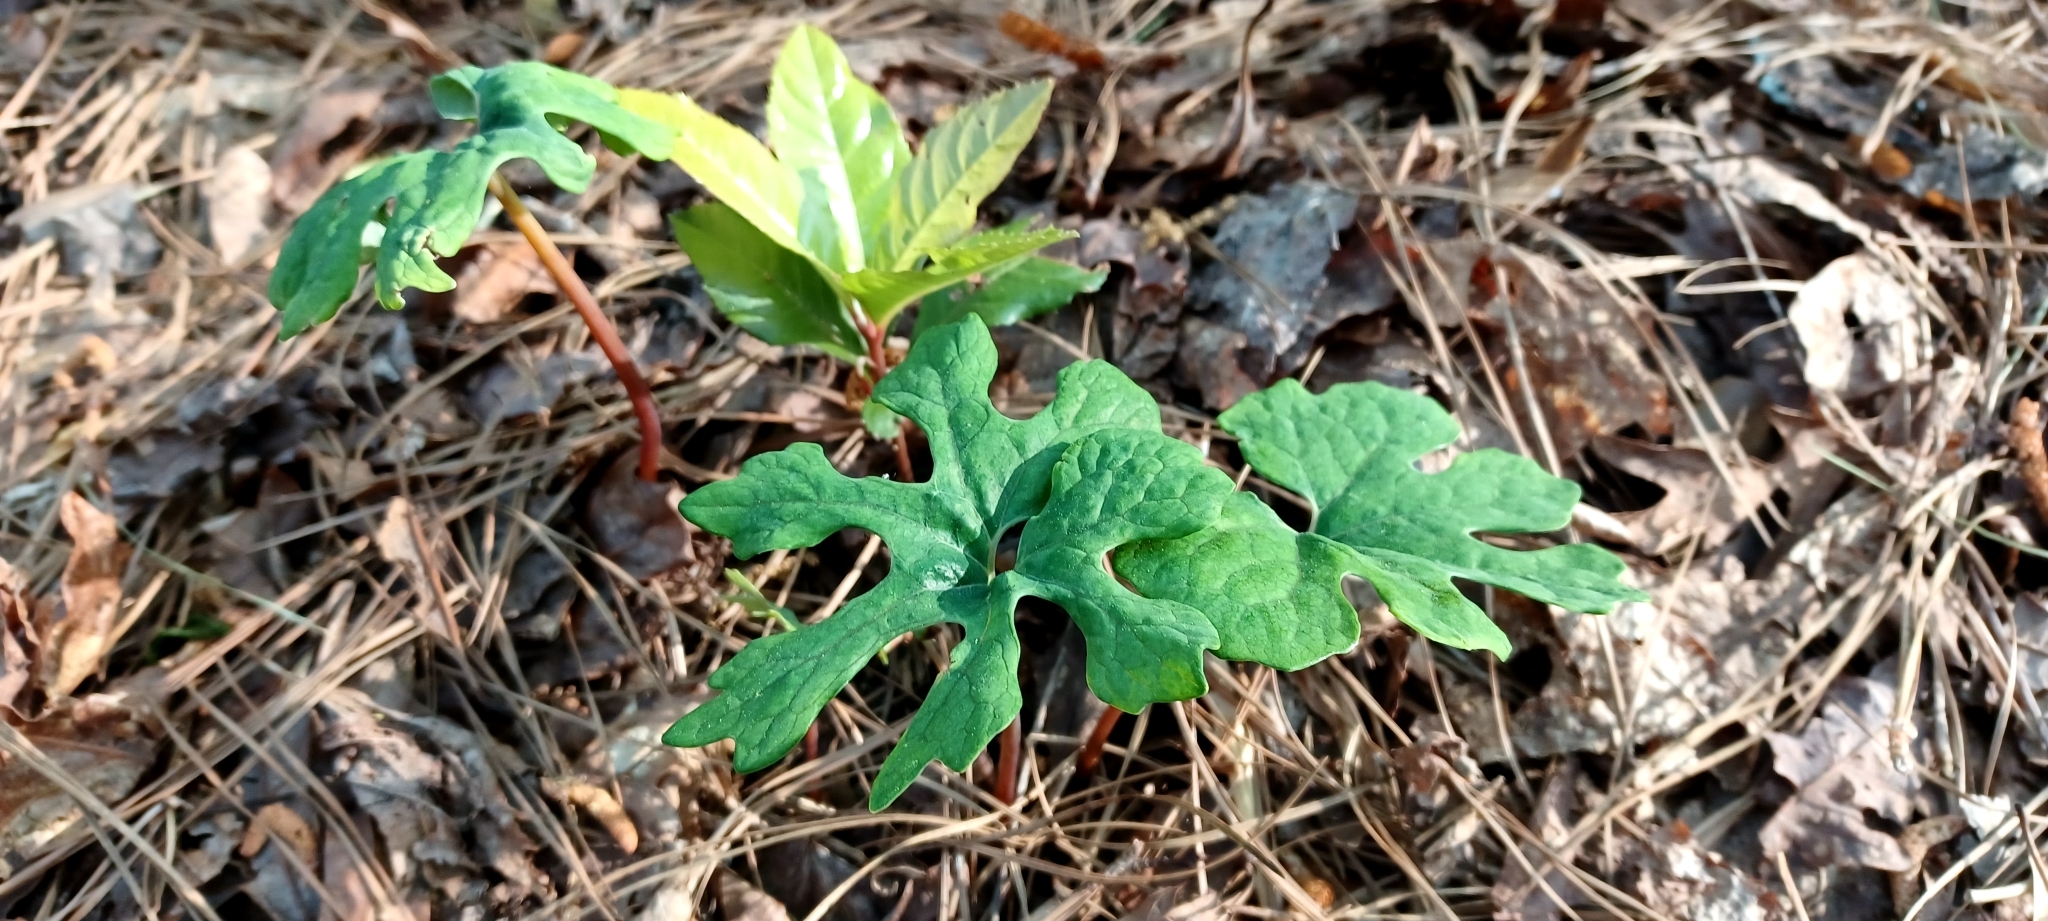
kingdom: Plantae
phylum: Tracheophyta
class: Magnoliopsida
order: Ranunculales
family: Papaveraceae
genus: Sanguinaria
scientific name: Sanguinaria canadensis
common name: Bloodroot
